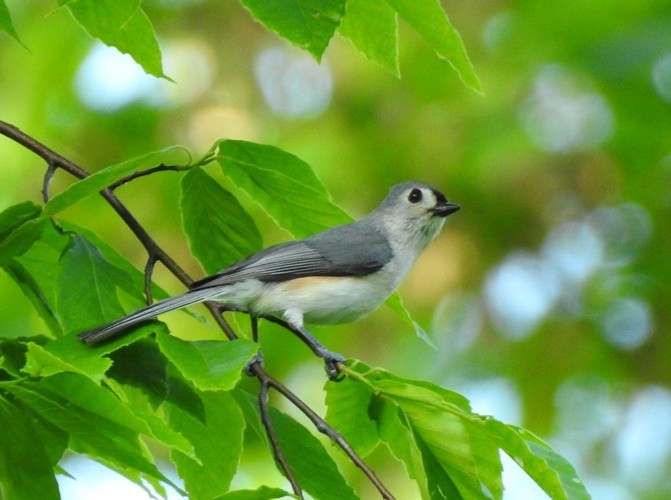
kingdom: Animalia
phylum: Chordata
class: Aves
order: Passeriformes
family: Paridae
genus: Baeolophus
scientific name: Baeolophus bicolor
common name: Tufted titmouse
